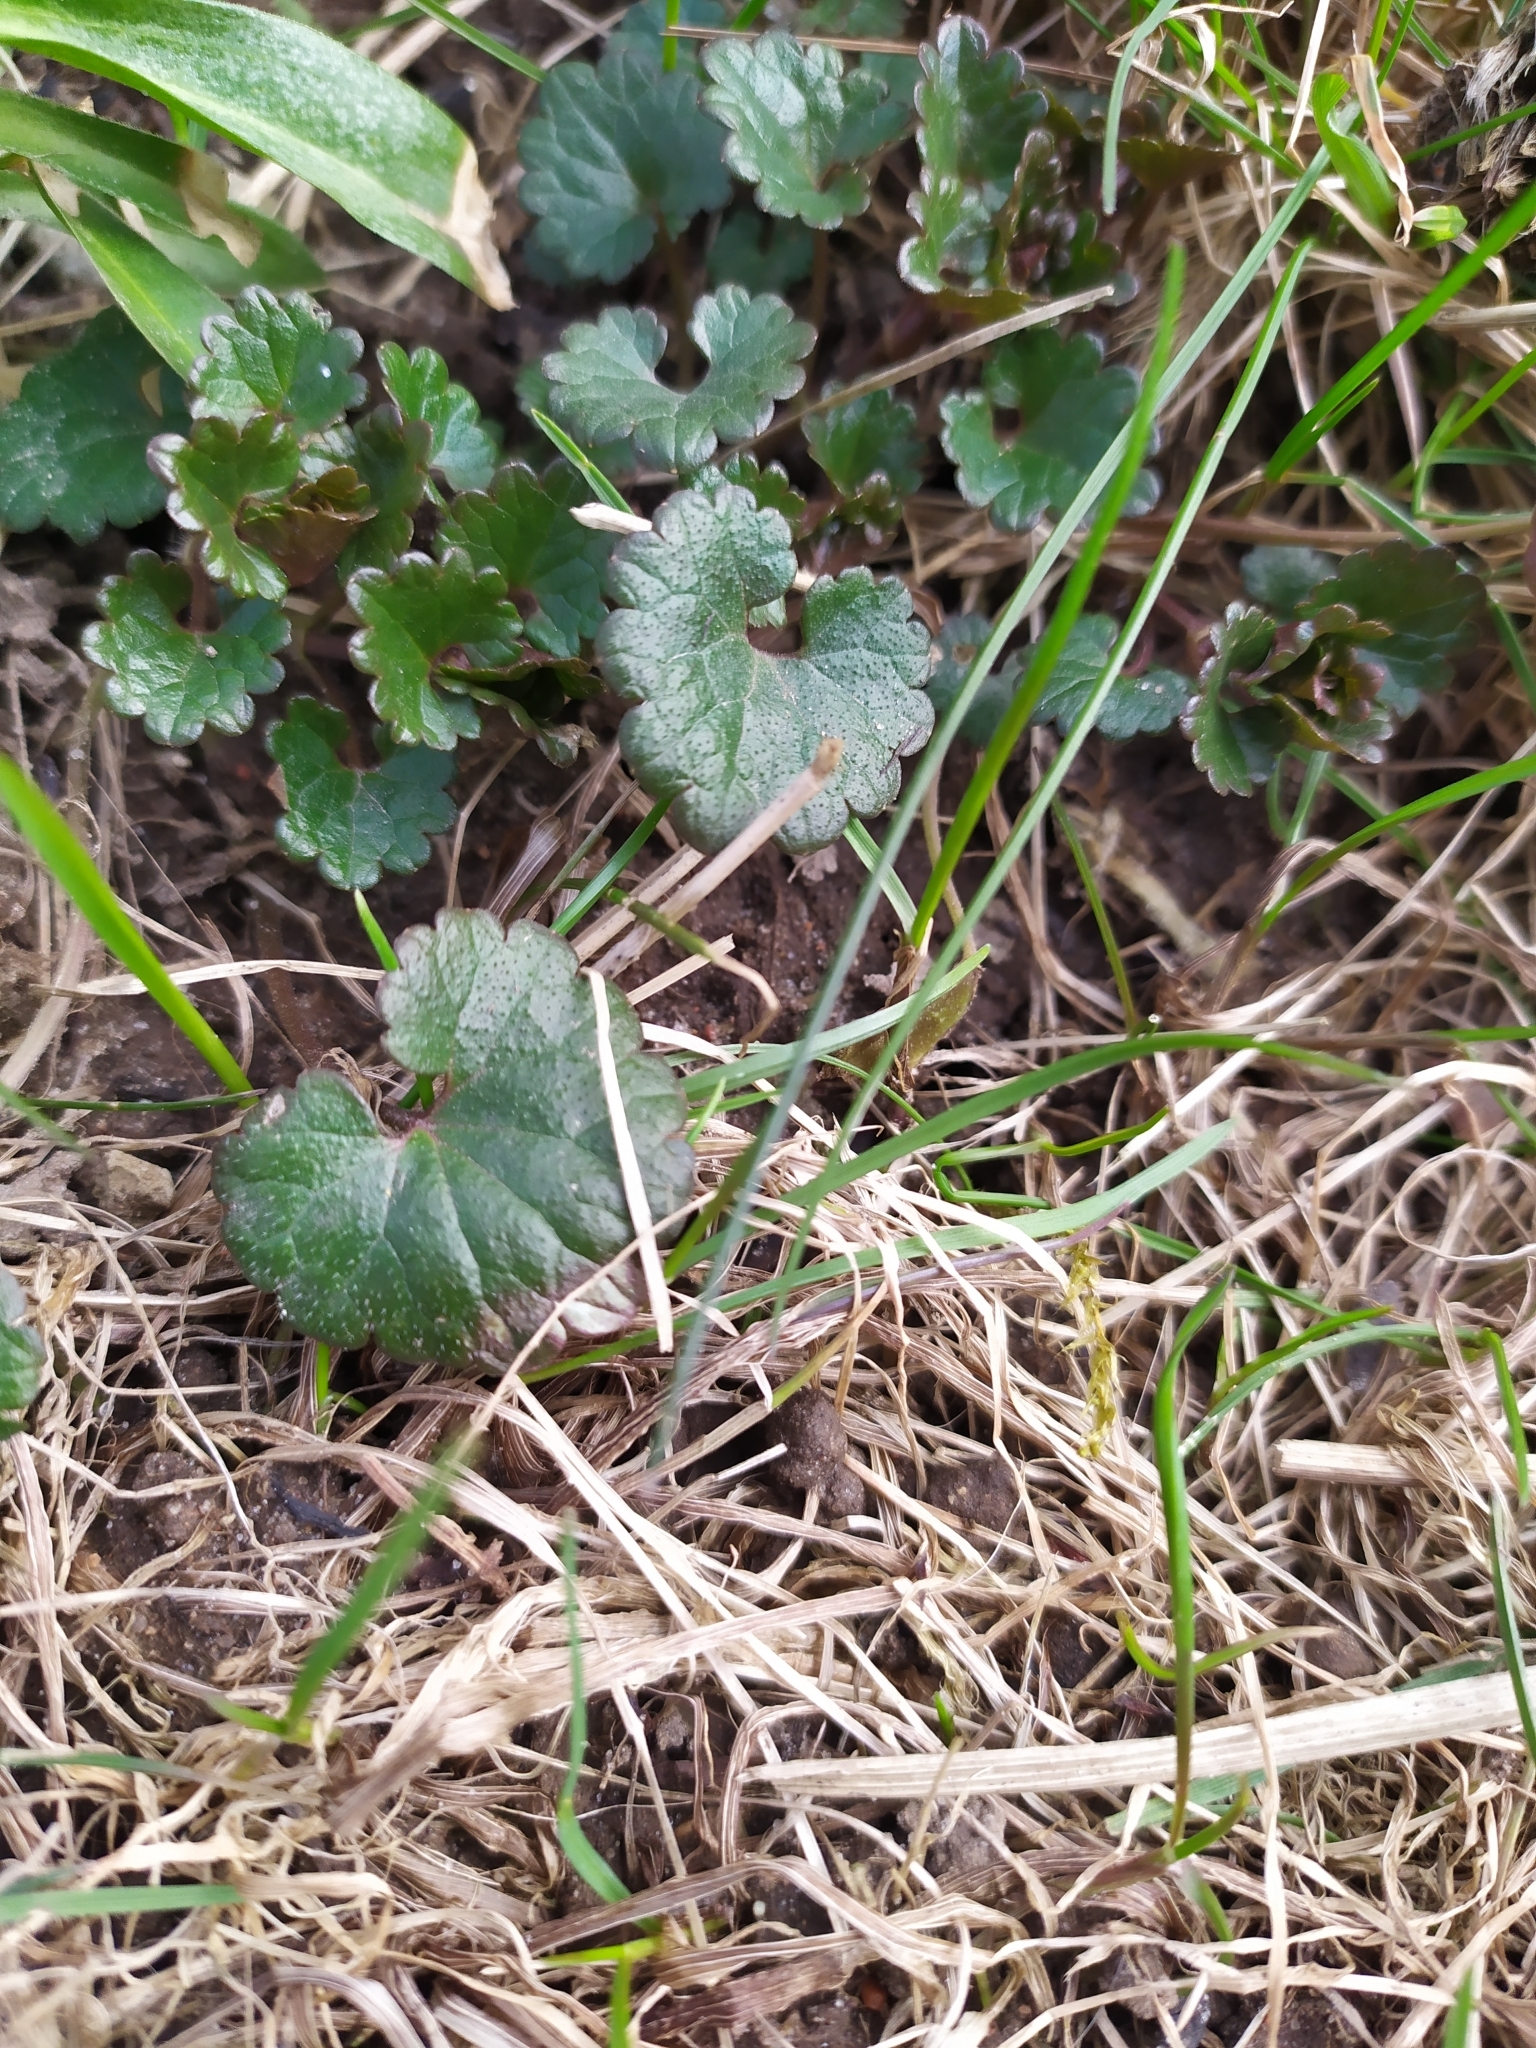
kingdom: Plantae
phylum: Tracheophyta
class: Magnoliopsida
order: Lamiales
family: Lamiaceae
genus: Glechoma
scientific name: Glechoma hederacea
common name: Ground ivy
